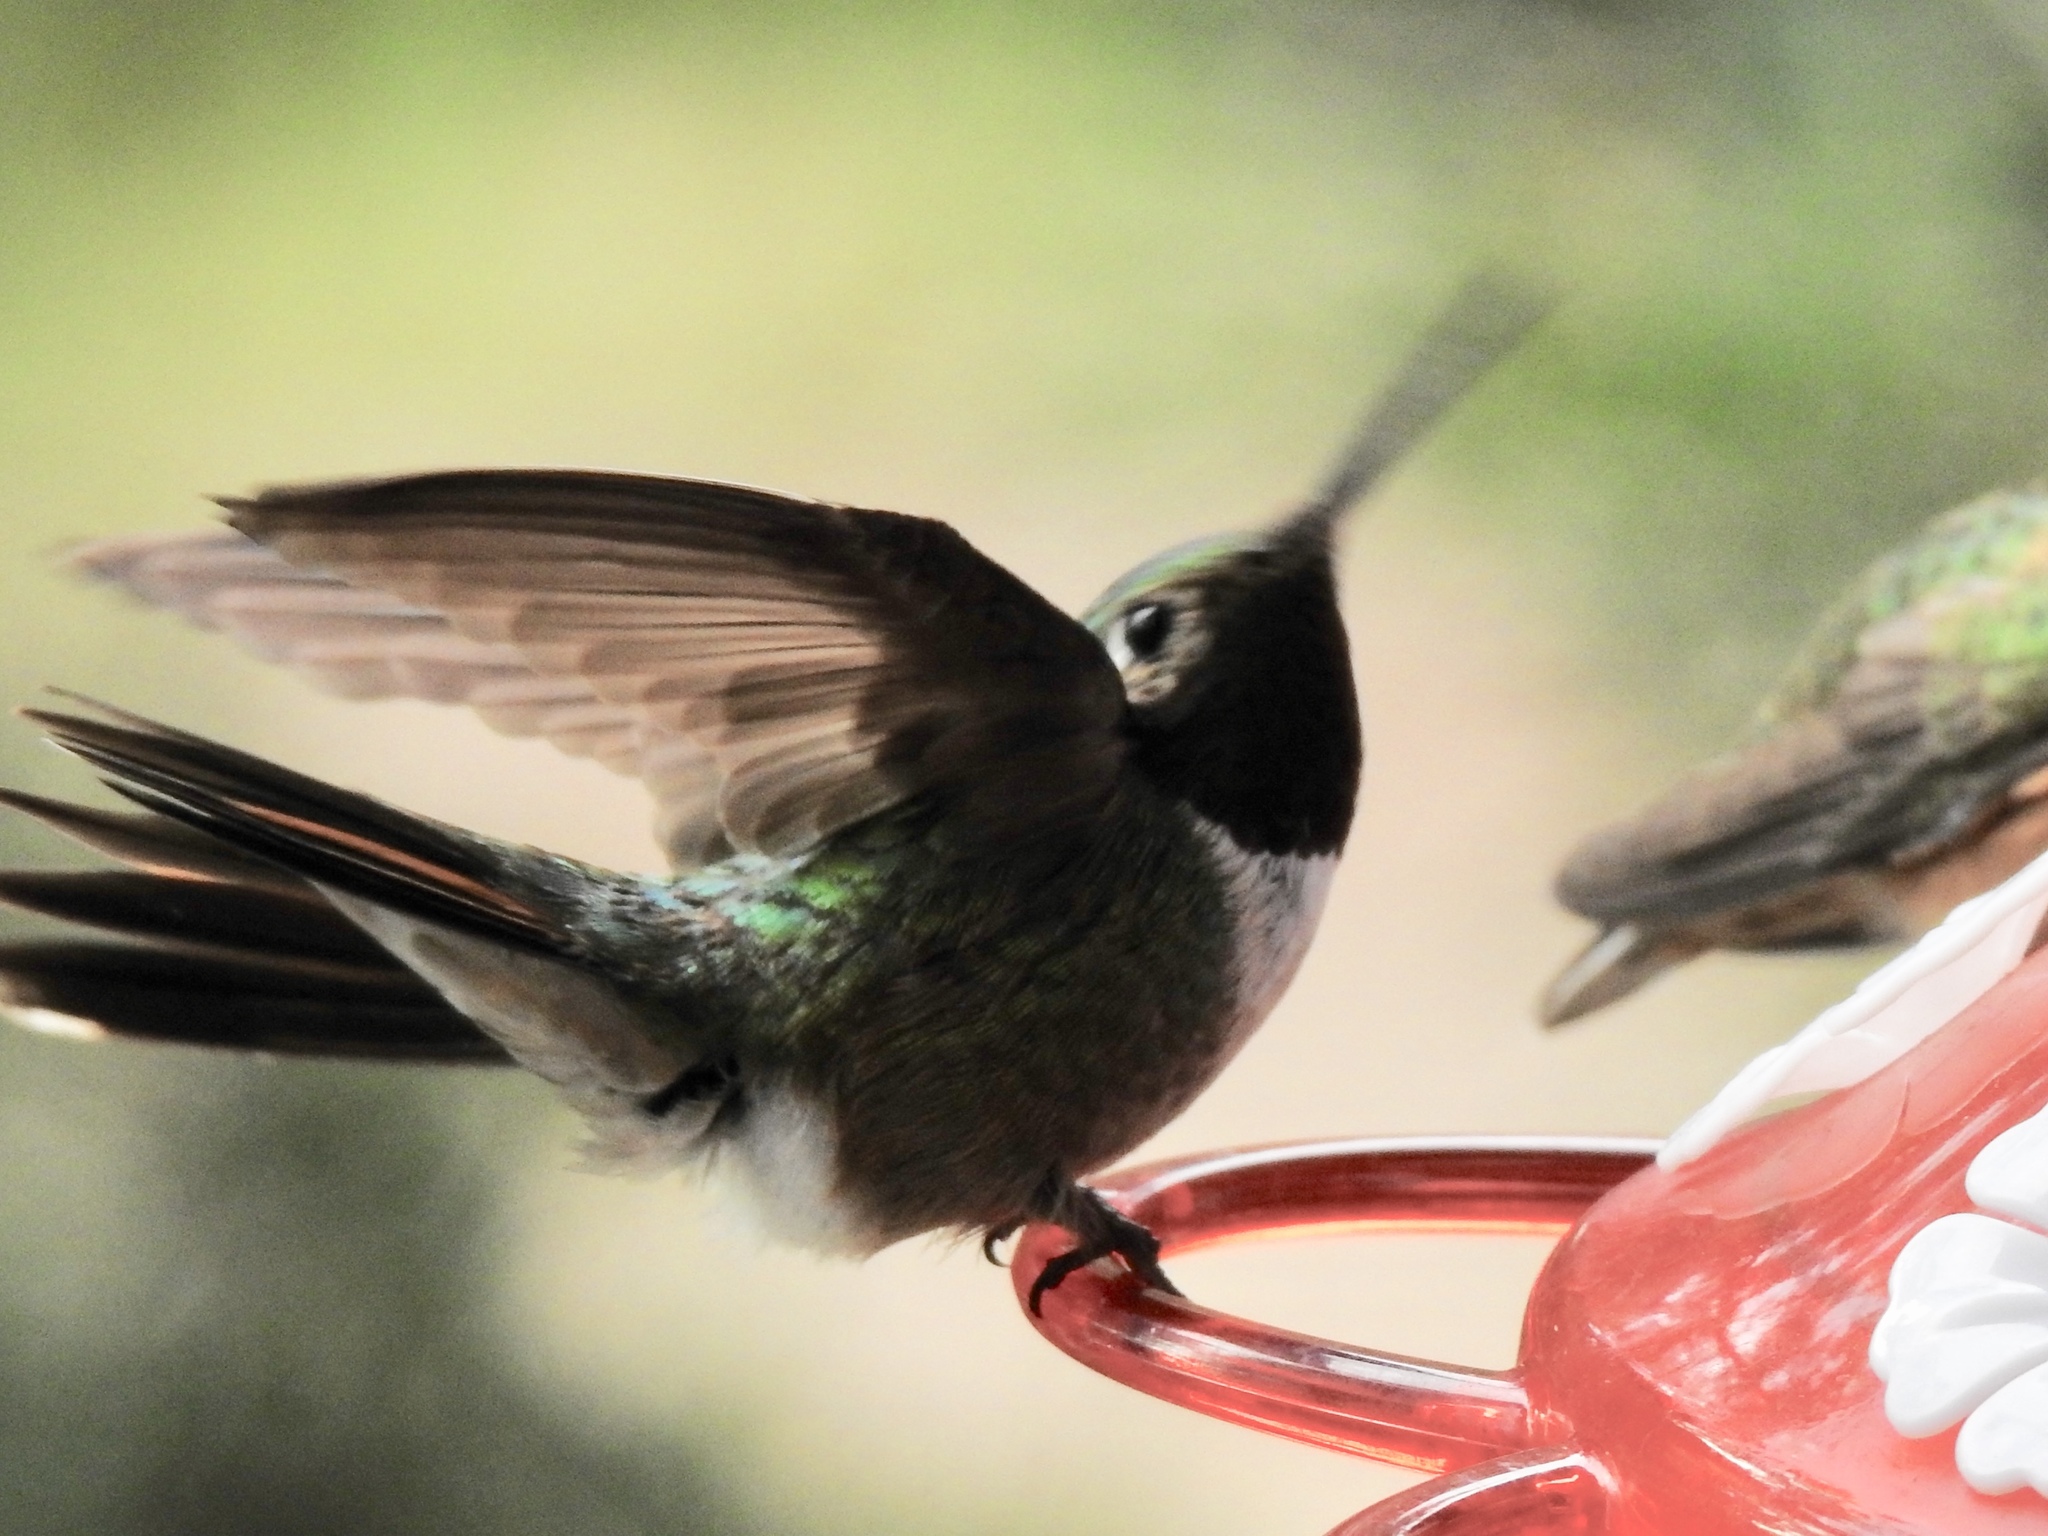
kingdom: Animalia
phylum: Chordata
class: Aves
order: Apodiformes
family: Trochilidae
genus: Selasphorus
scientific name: Selasphorus platycercus
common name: Broad-tailed hummingbird
